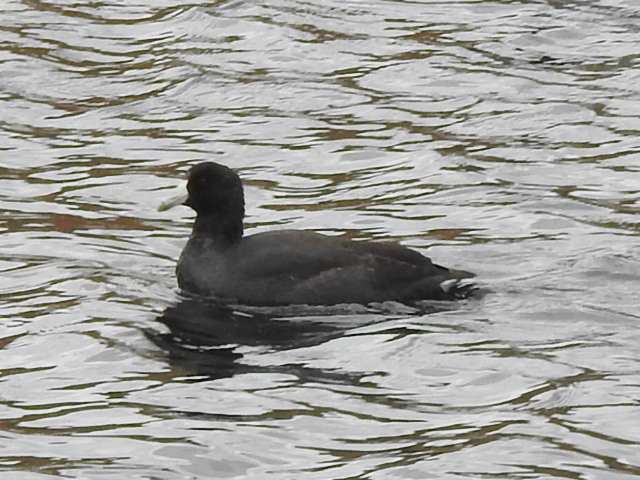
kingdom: Animalia
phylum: Chordata
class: Aves
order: Gruiformes
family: Rallidae
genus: Fulica
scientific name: Fulica americana
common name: American coot
